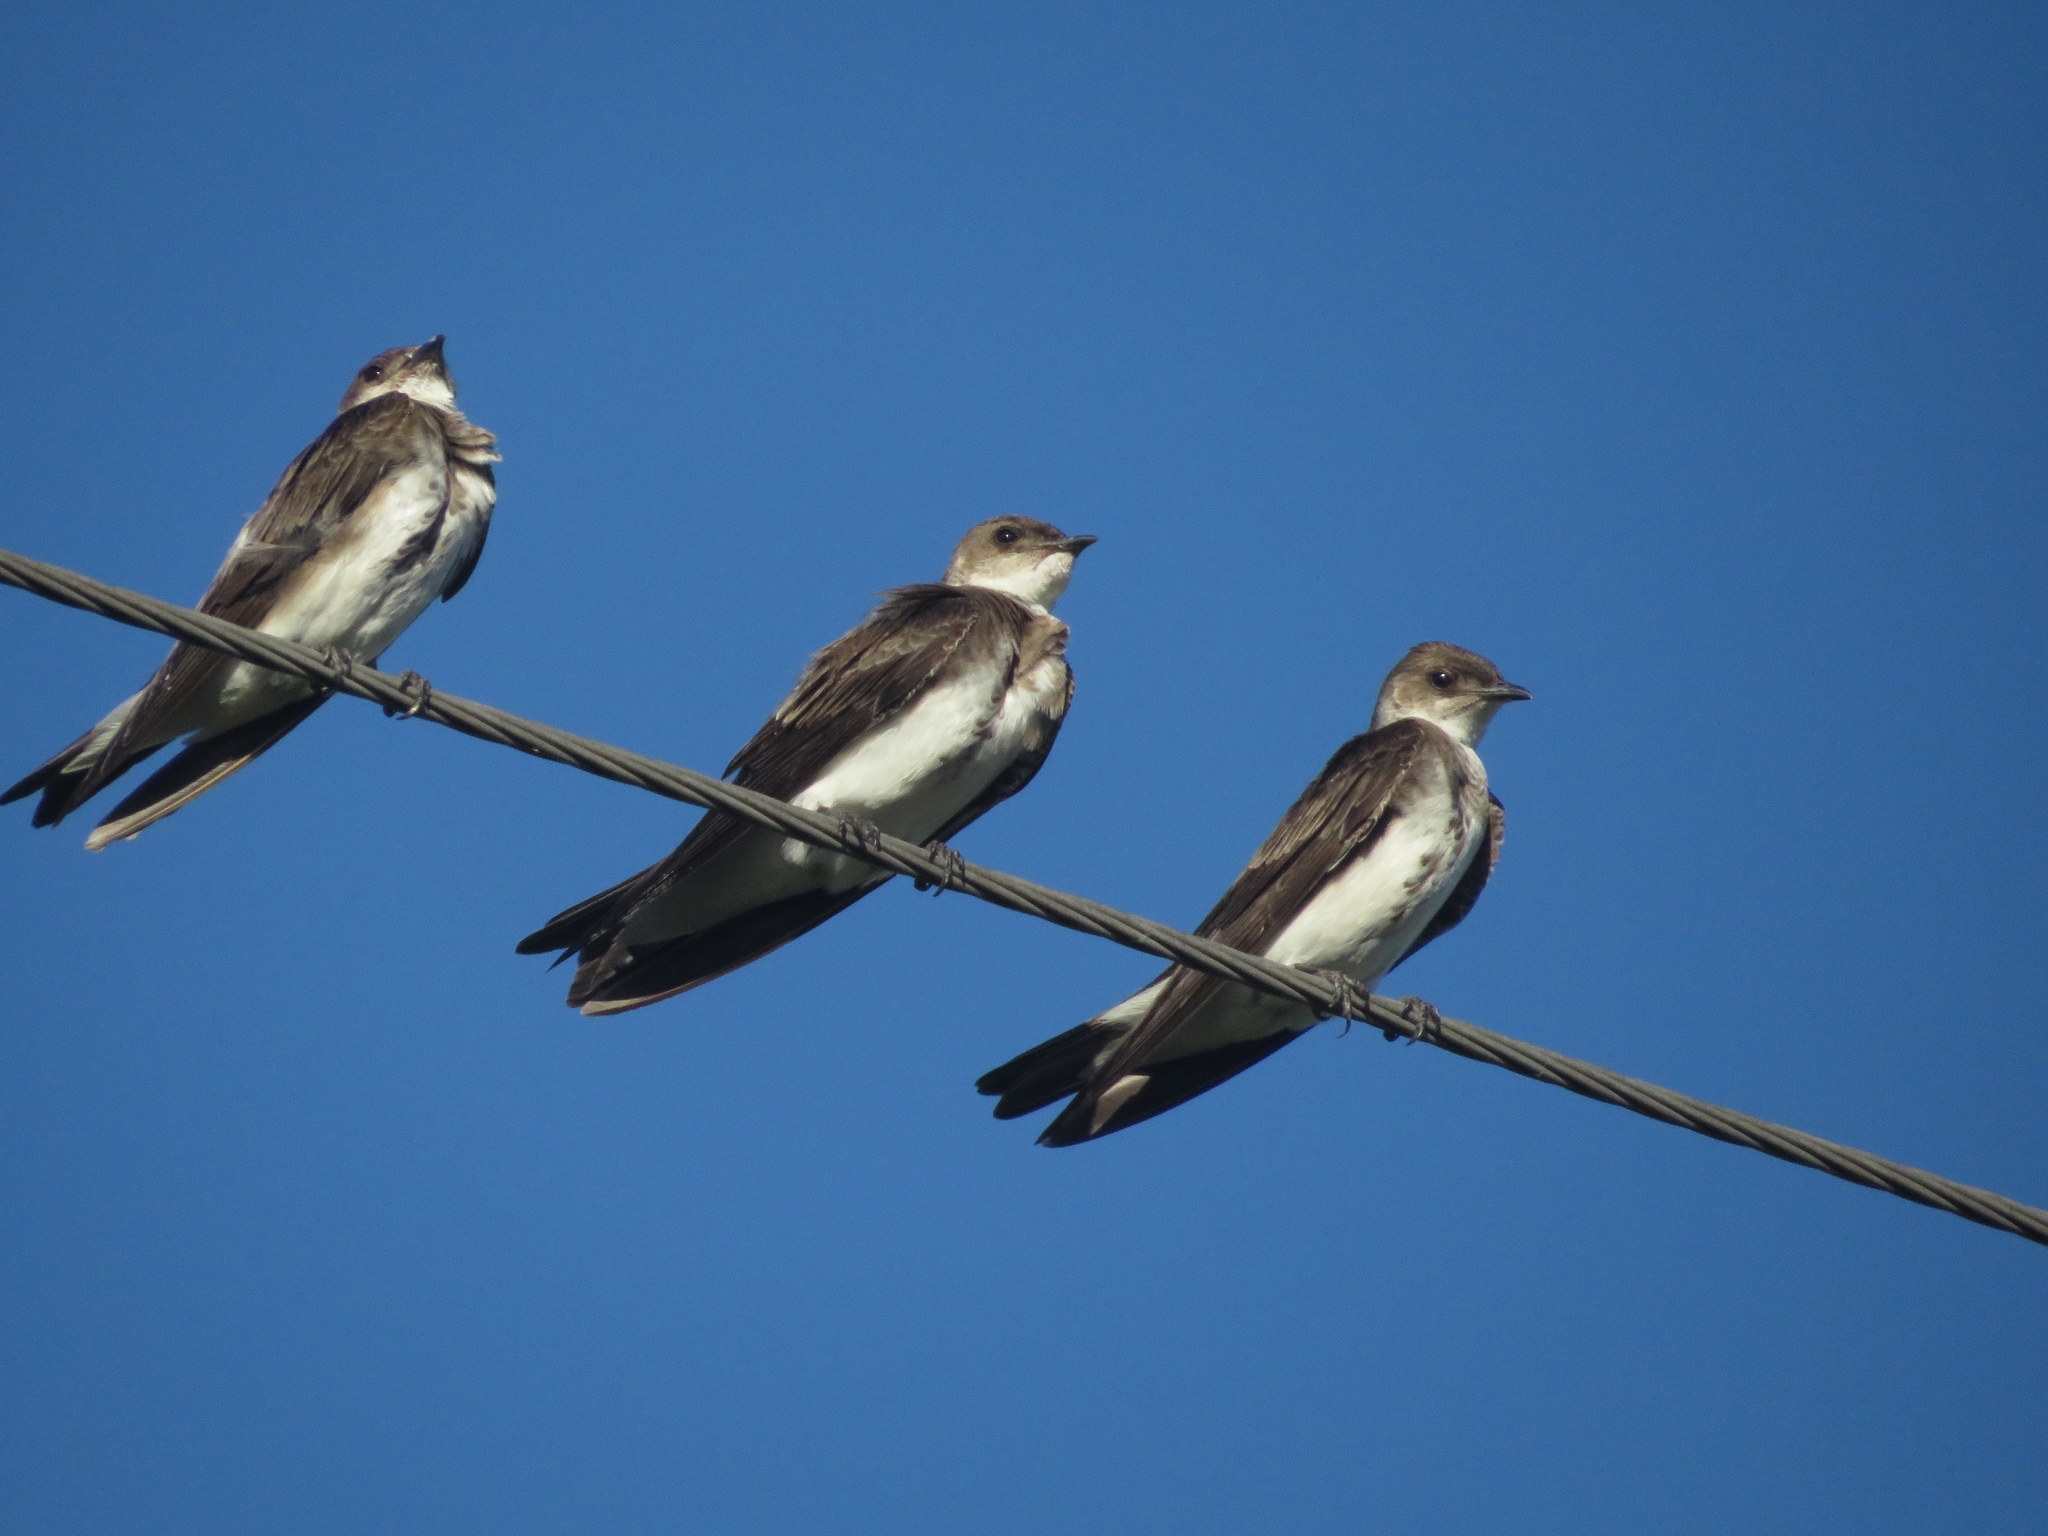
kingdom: Animalia
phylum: Chordata
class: Aves
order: Passeriformes
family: Hirundinidae
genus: Progne
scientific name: Progne tapera
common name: Brown-chested martin
